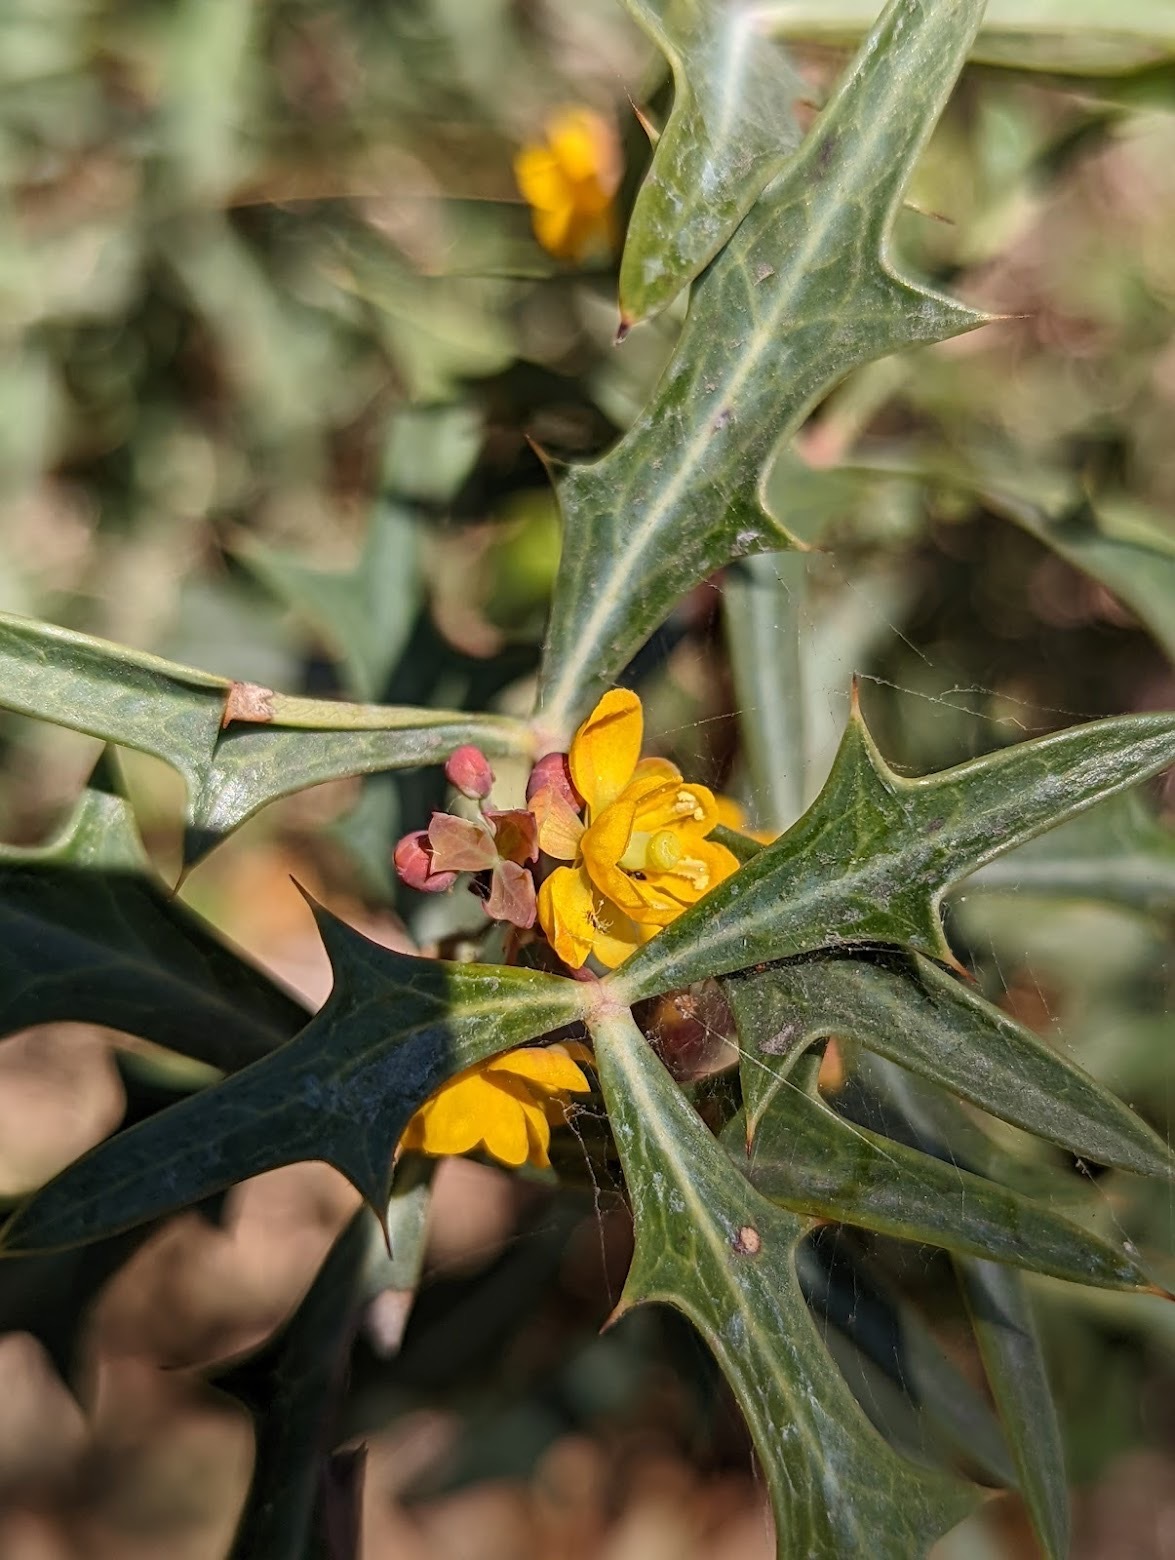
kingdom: Plantae
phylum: Tracheophyta
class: Magnoliopsida
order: Ranunculales
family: Berberidaceae
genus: Alloberberis
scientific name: Alloberberis trifoliolata
